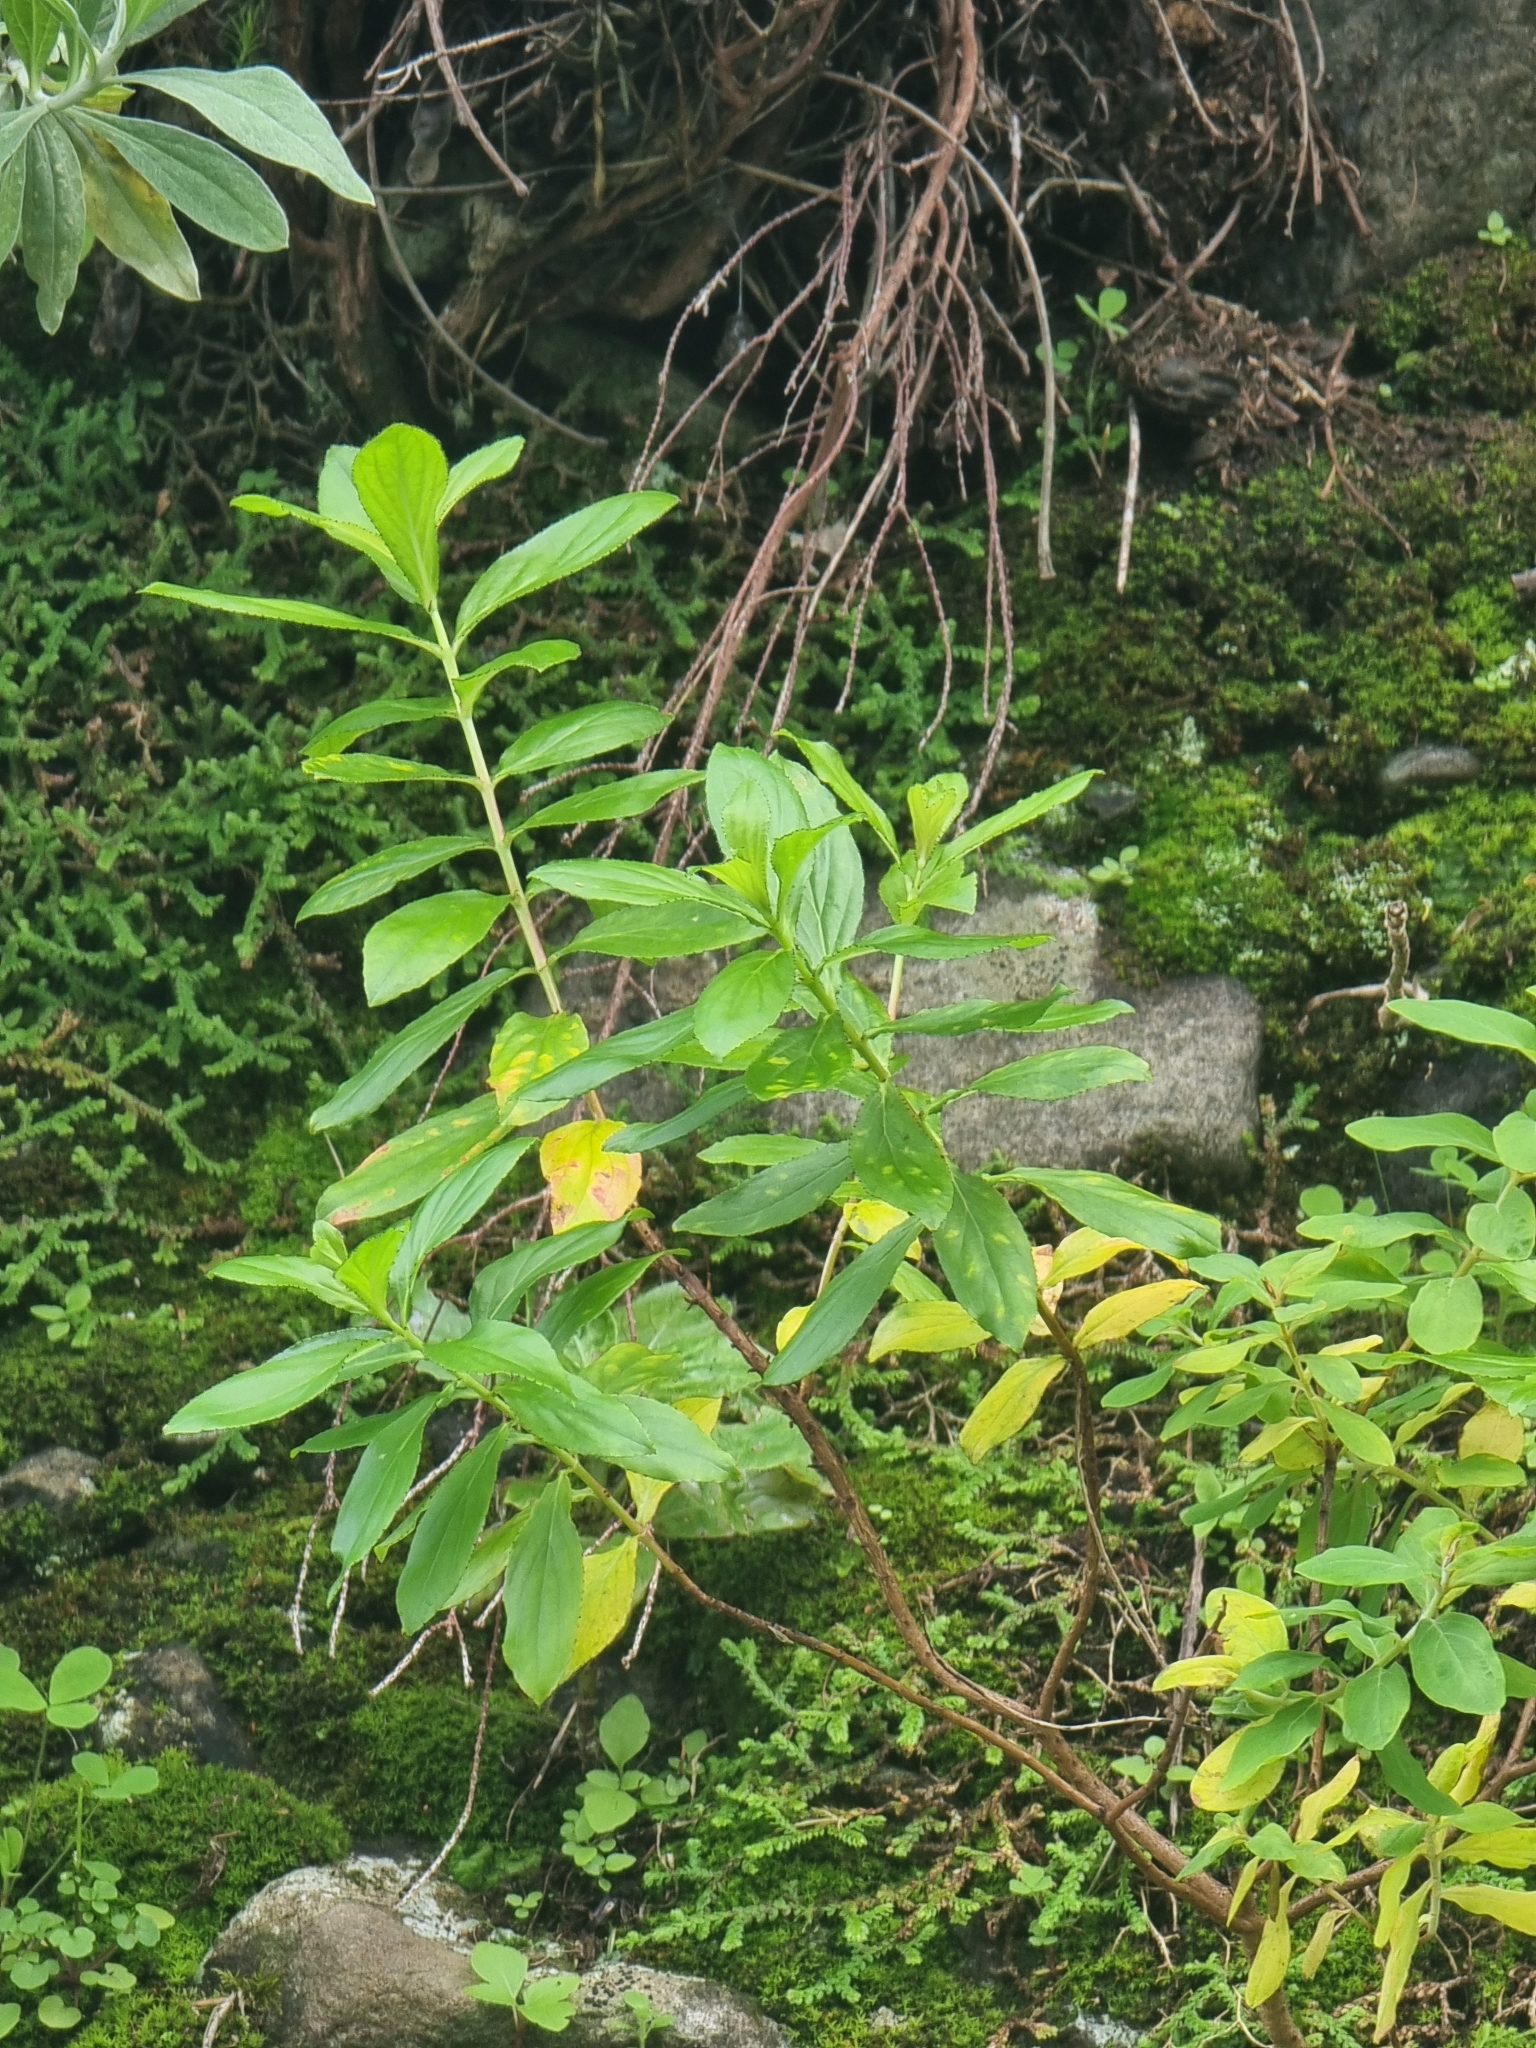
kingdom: Plantae
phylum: Tracheophyta
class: Magnoliopsida
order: Malpighiales
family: Hypericaceae
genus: Hypericum
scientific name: Hypericum glandulosum
